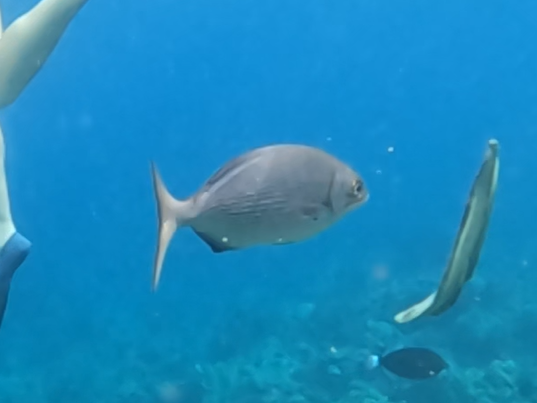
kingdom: Animalia
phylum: Chordata
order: Perciformes
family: Kyphosidae
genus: Kyphosus
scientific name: Kyphosus elegans
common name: Cortez chub
